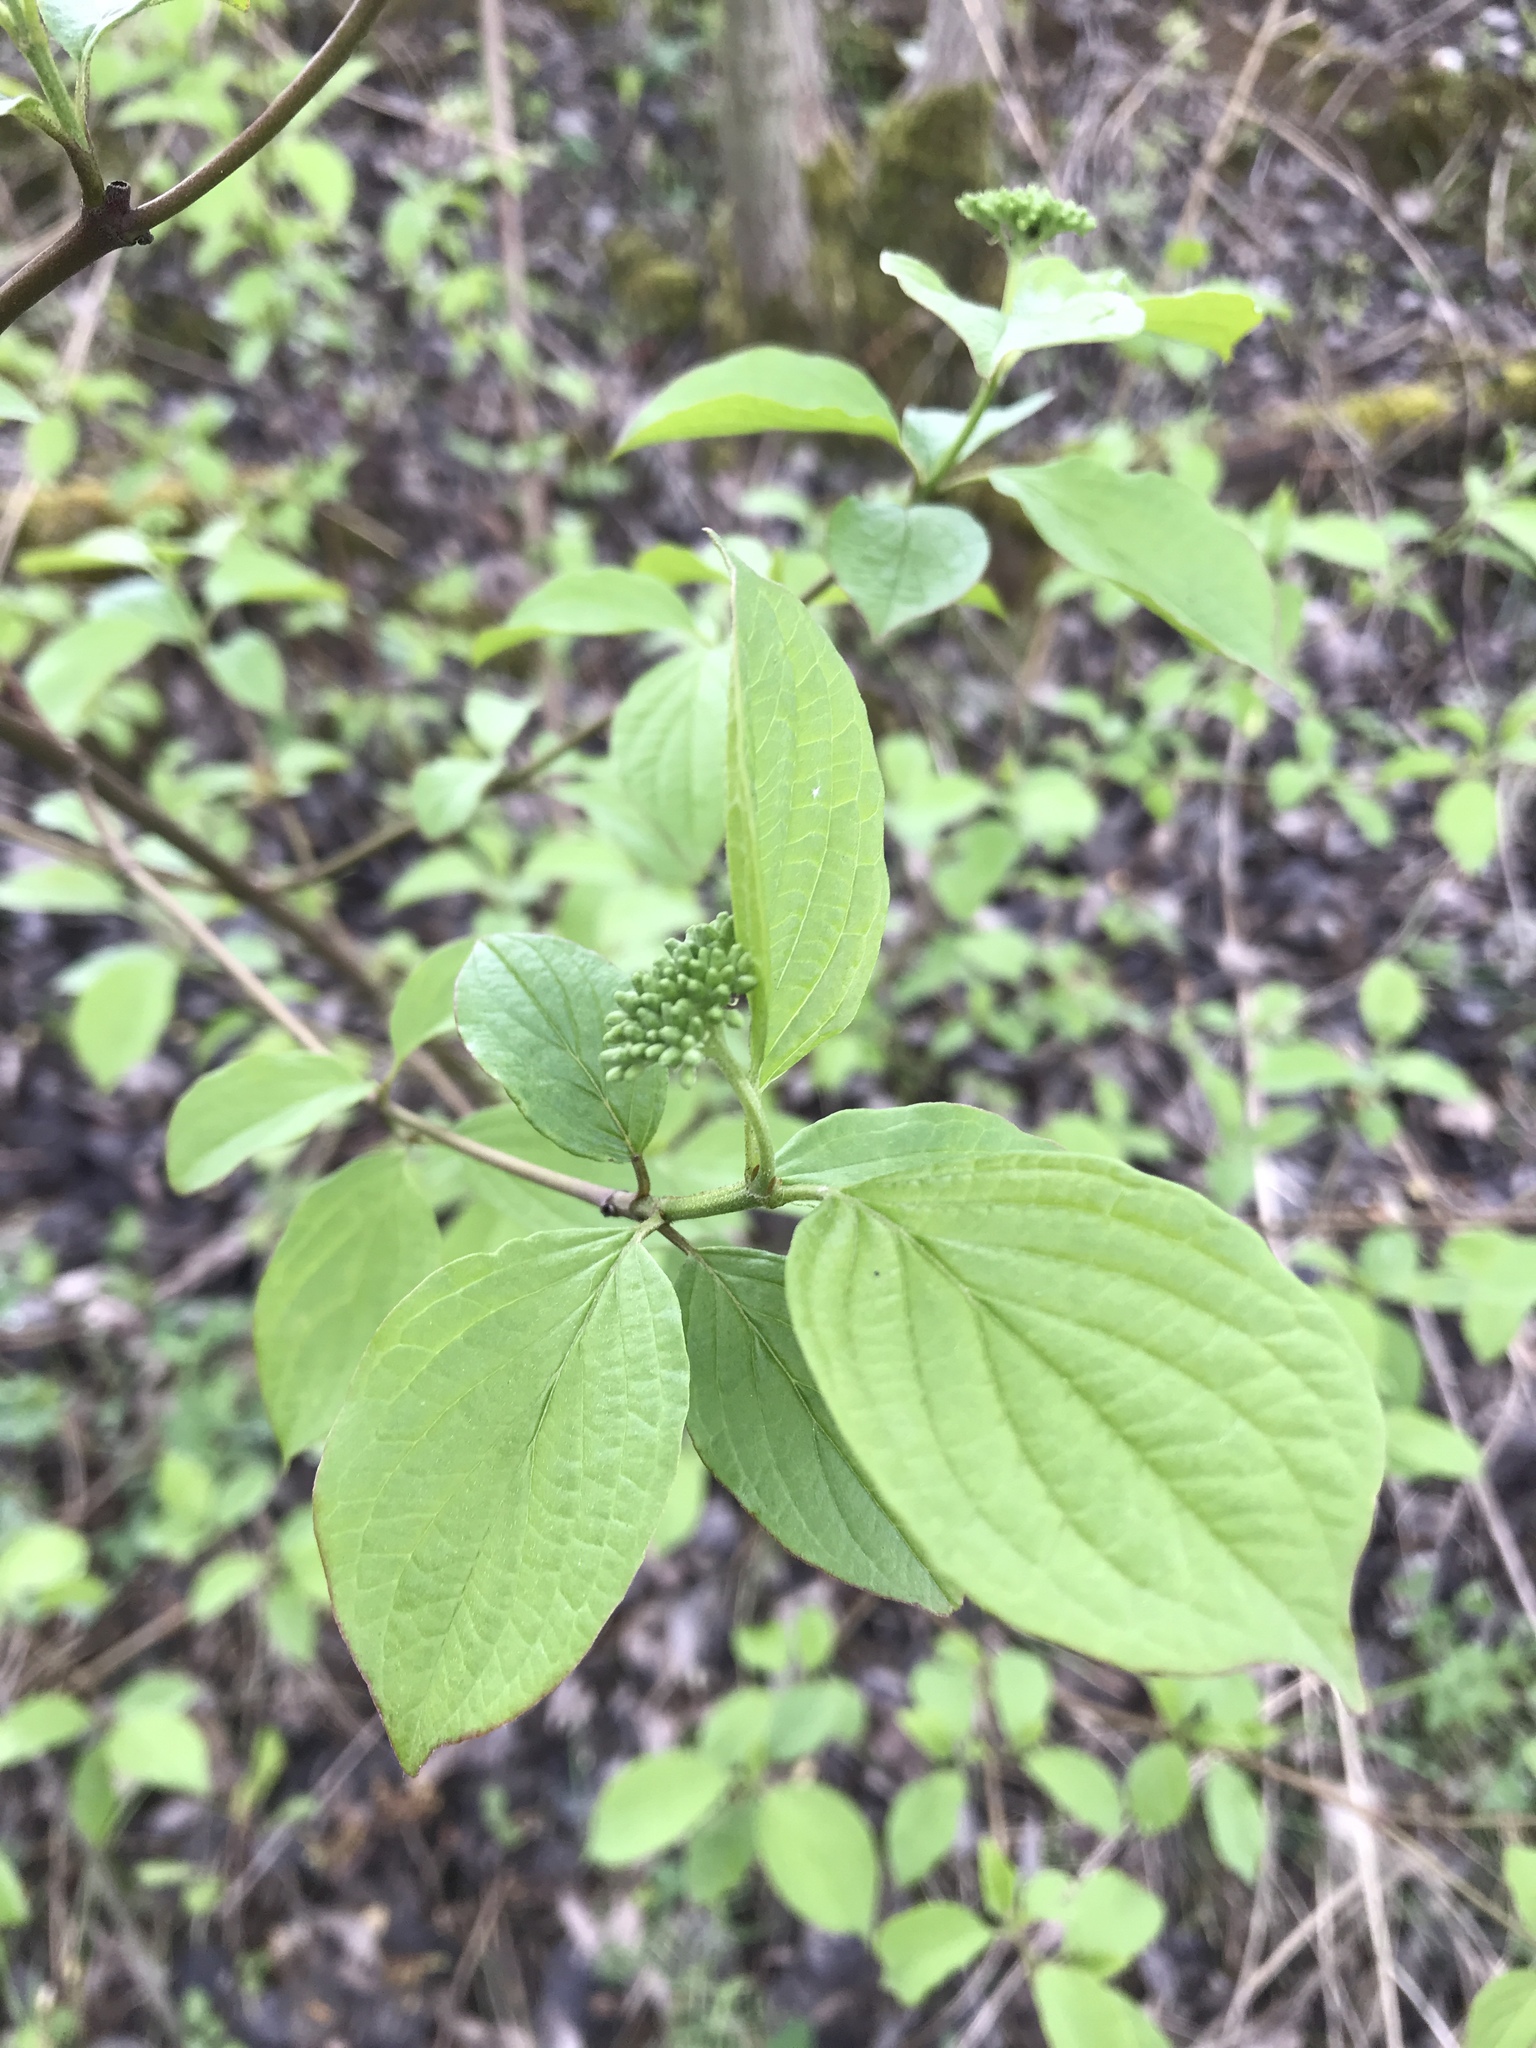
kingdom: Plantae
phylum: Tracheophyta
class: Magnoliopsida
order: Cornales
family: Cornaceae
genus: Cornus
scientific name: Cornus sanguinea
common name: Dogwood
